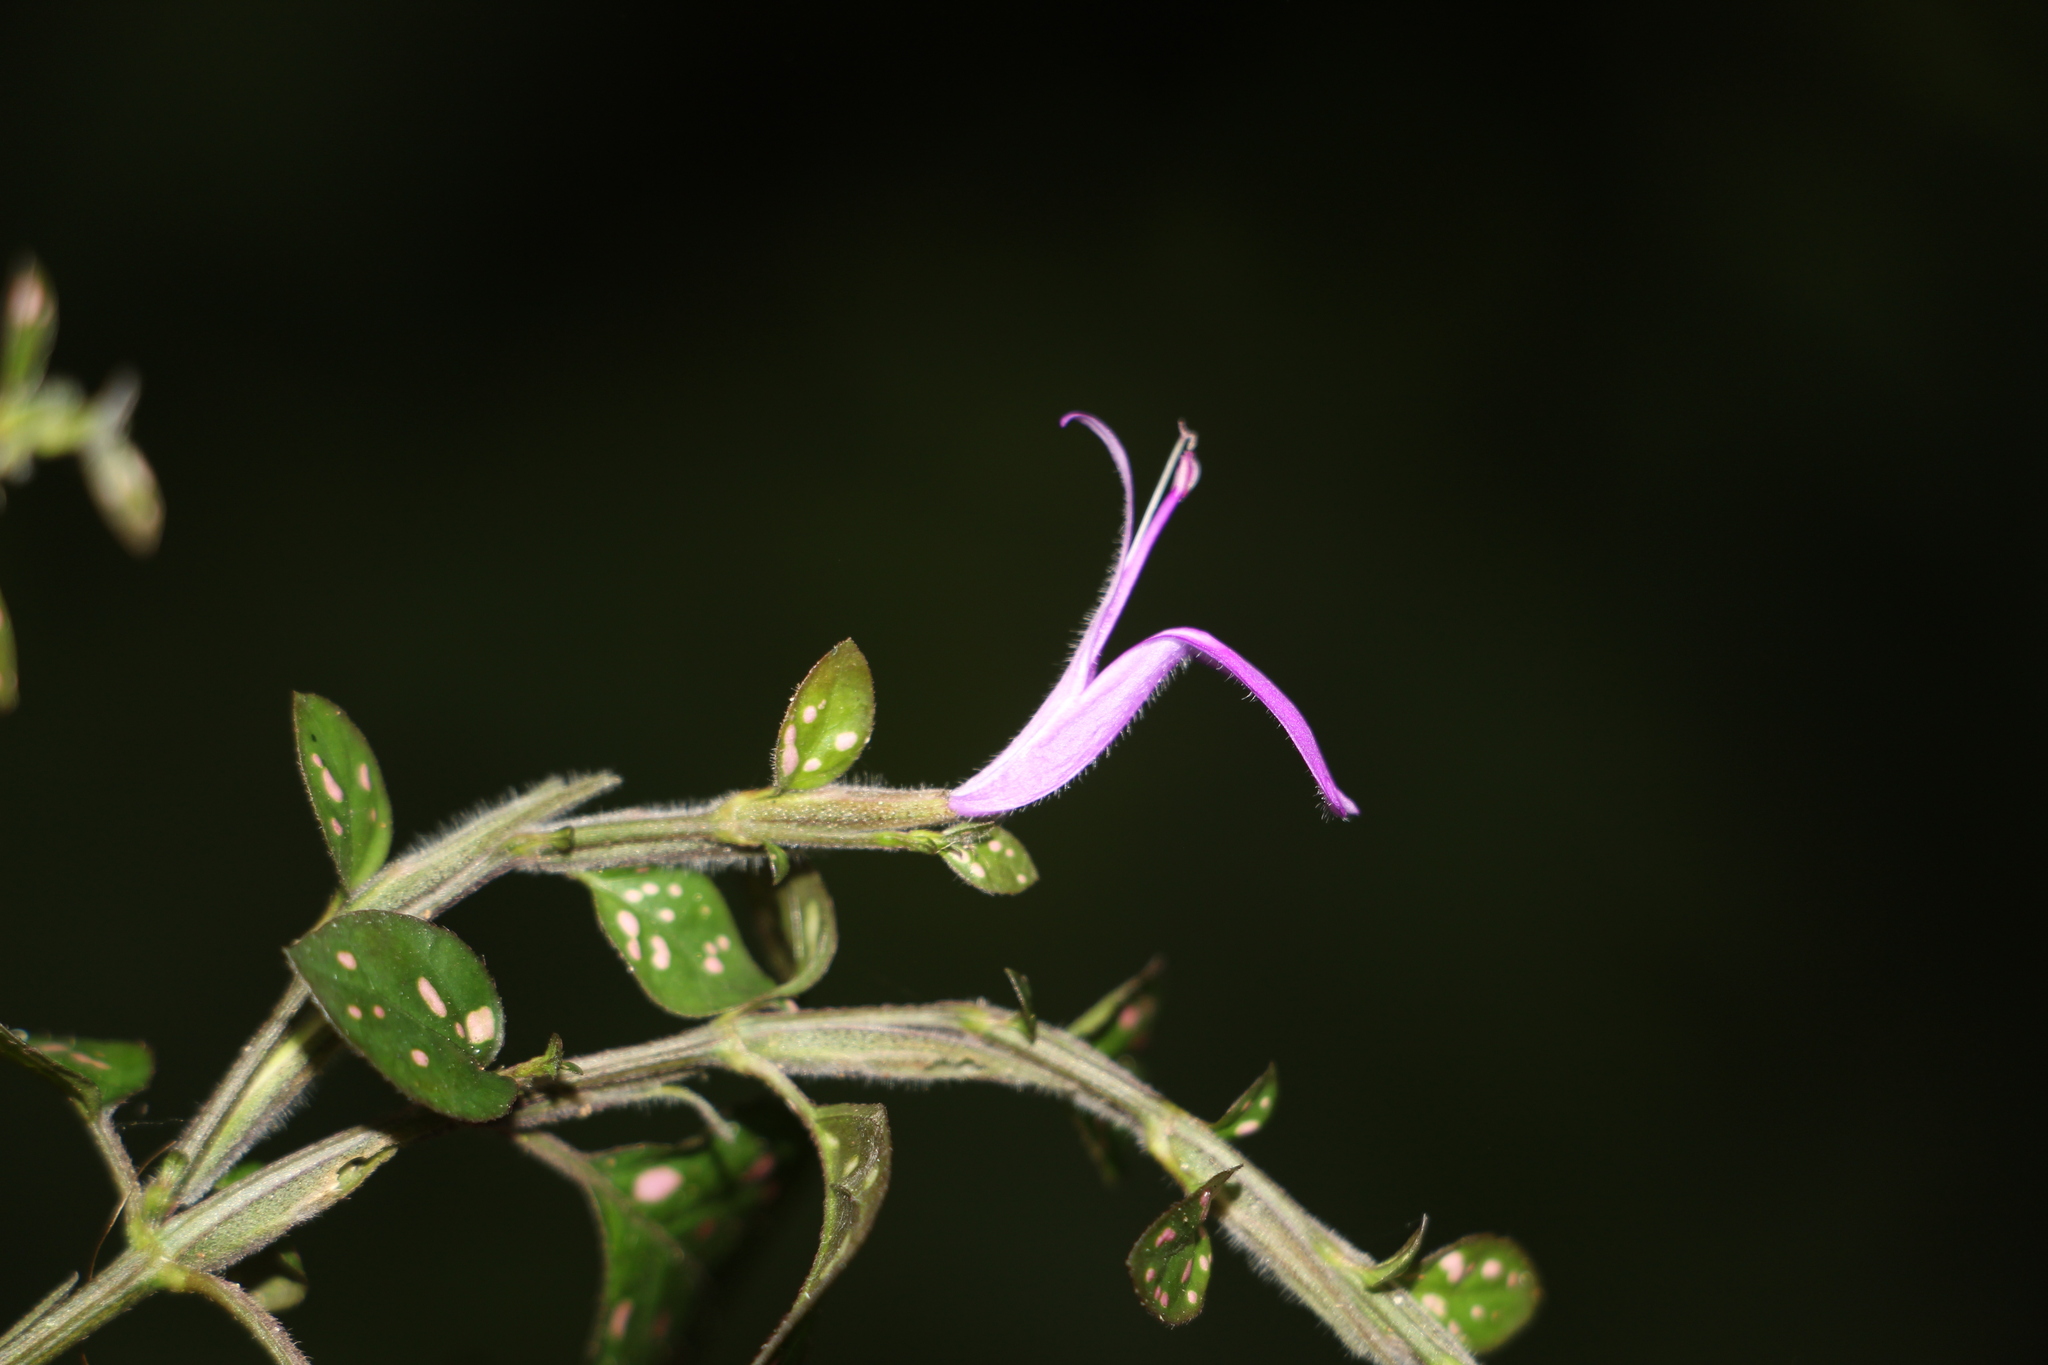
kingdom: Plantae
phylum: Tracheophyta
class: Magnoliopsida
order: Lamiales
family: Acanthaceae
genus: Hypoestes
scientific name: Hypoestes phyllostachya
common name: Polkadot-plant
